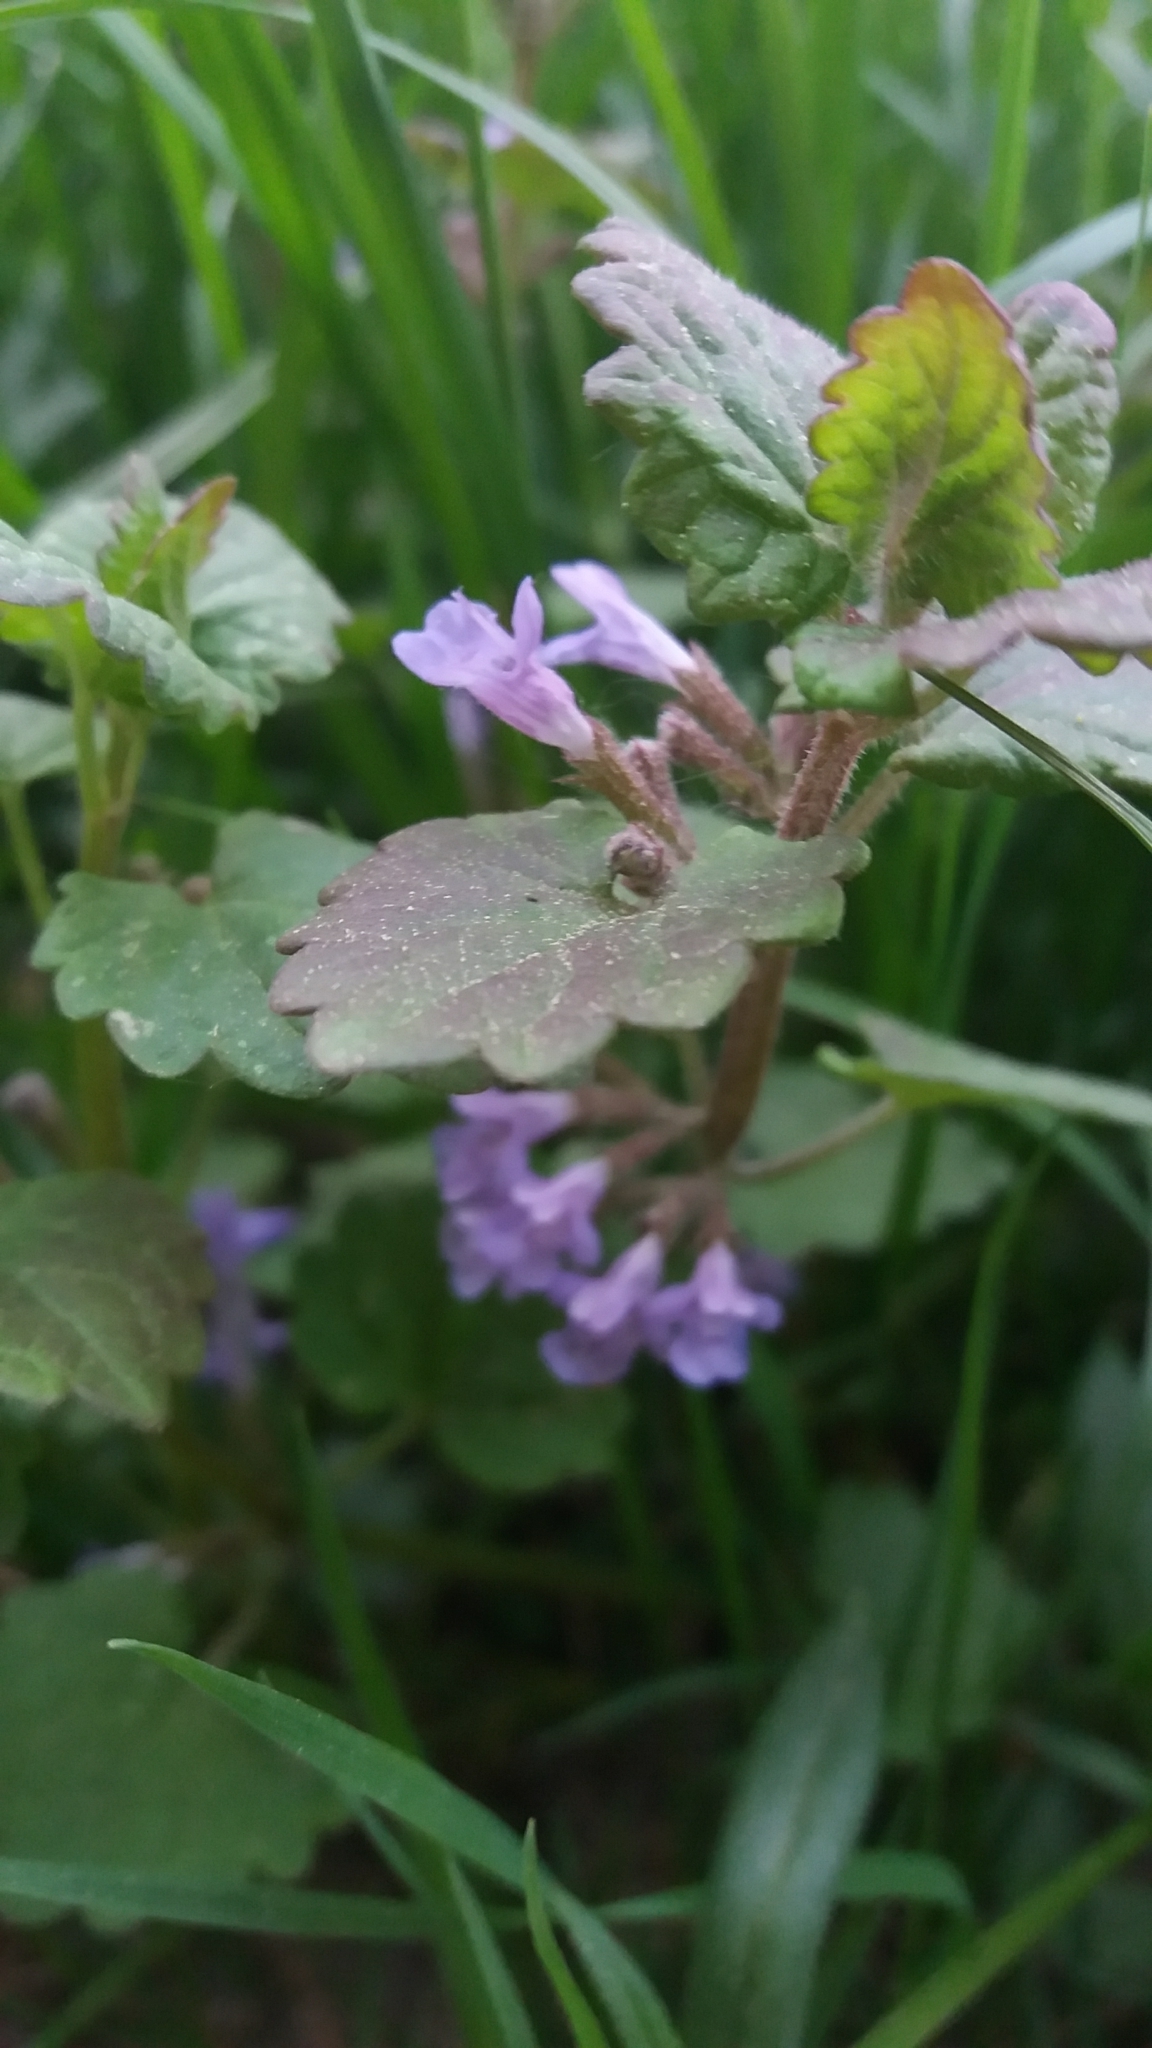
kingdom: Plantae
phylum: Tracheophyta
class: Magnoliopsida
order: Lamiales
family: Lamiaceae
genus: Glechoma
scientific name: Glechoma hederacea
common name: Ground ivy
